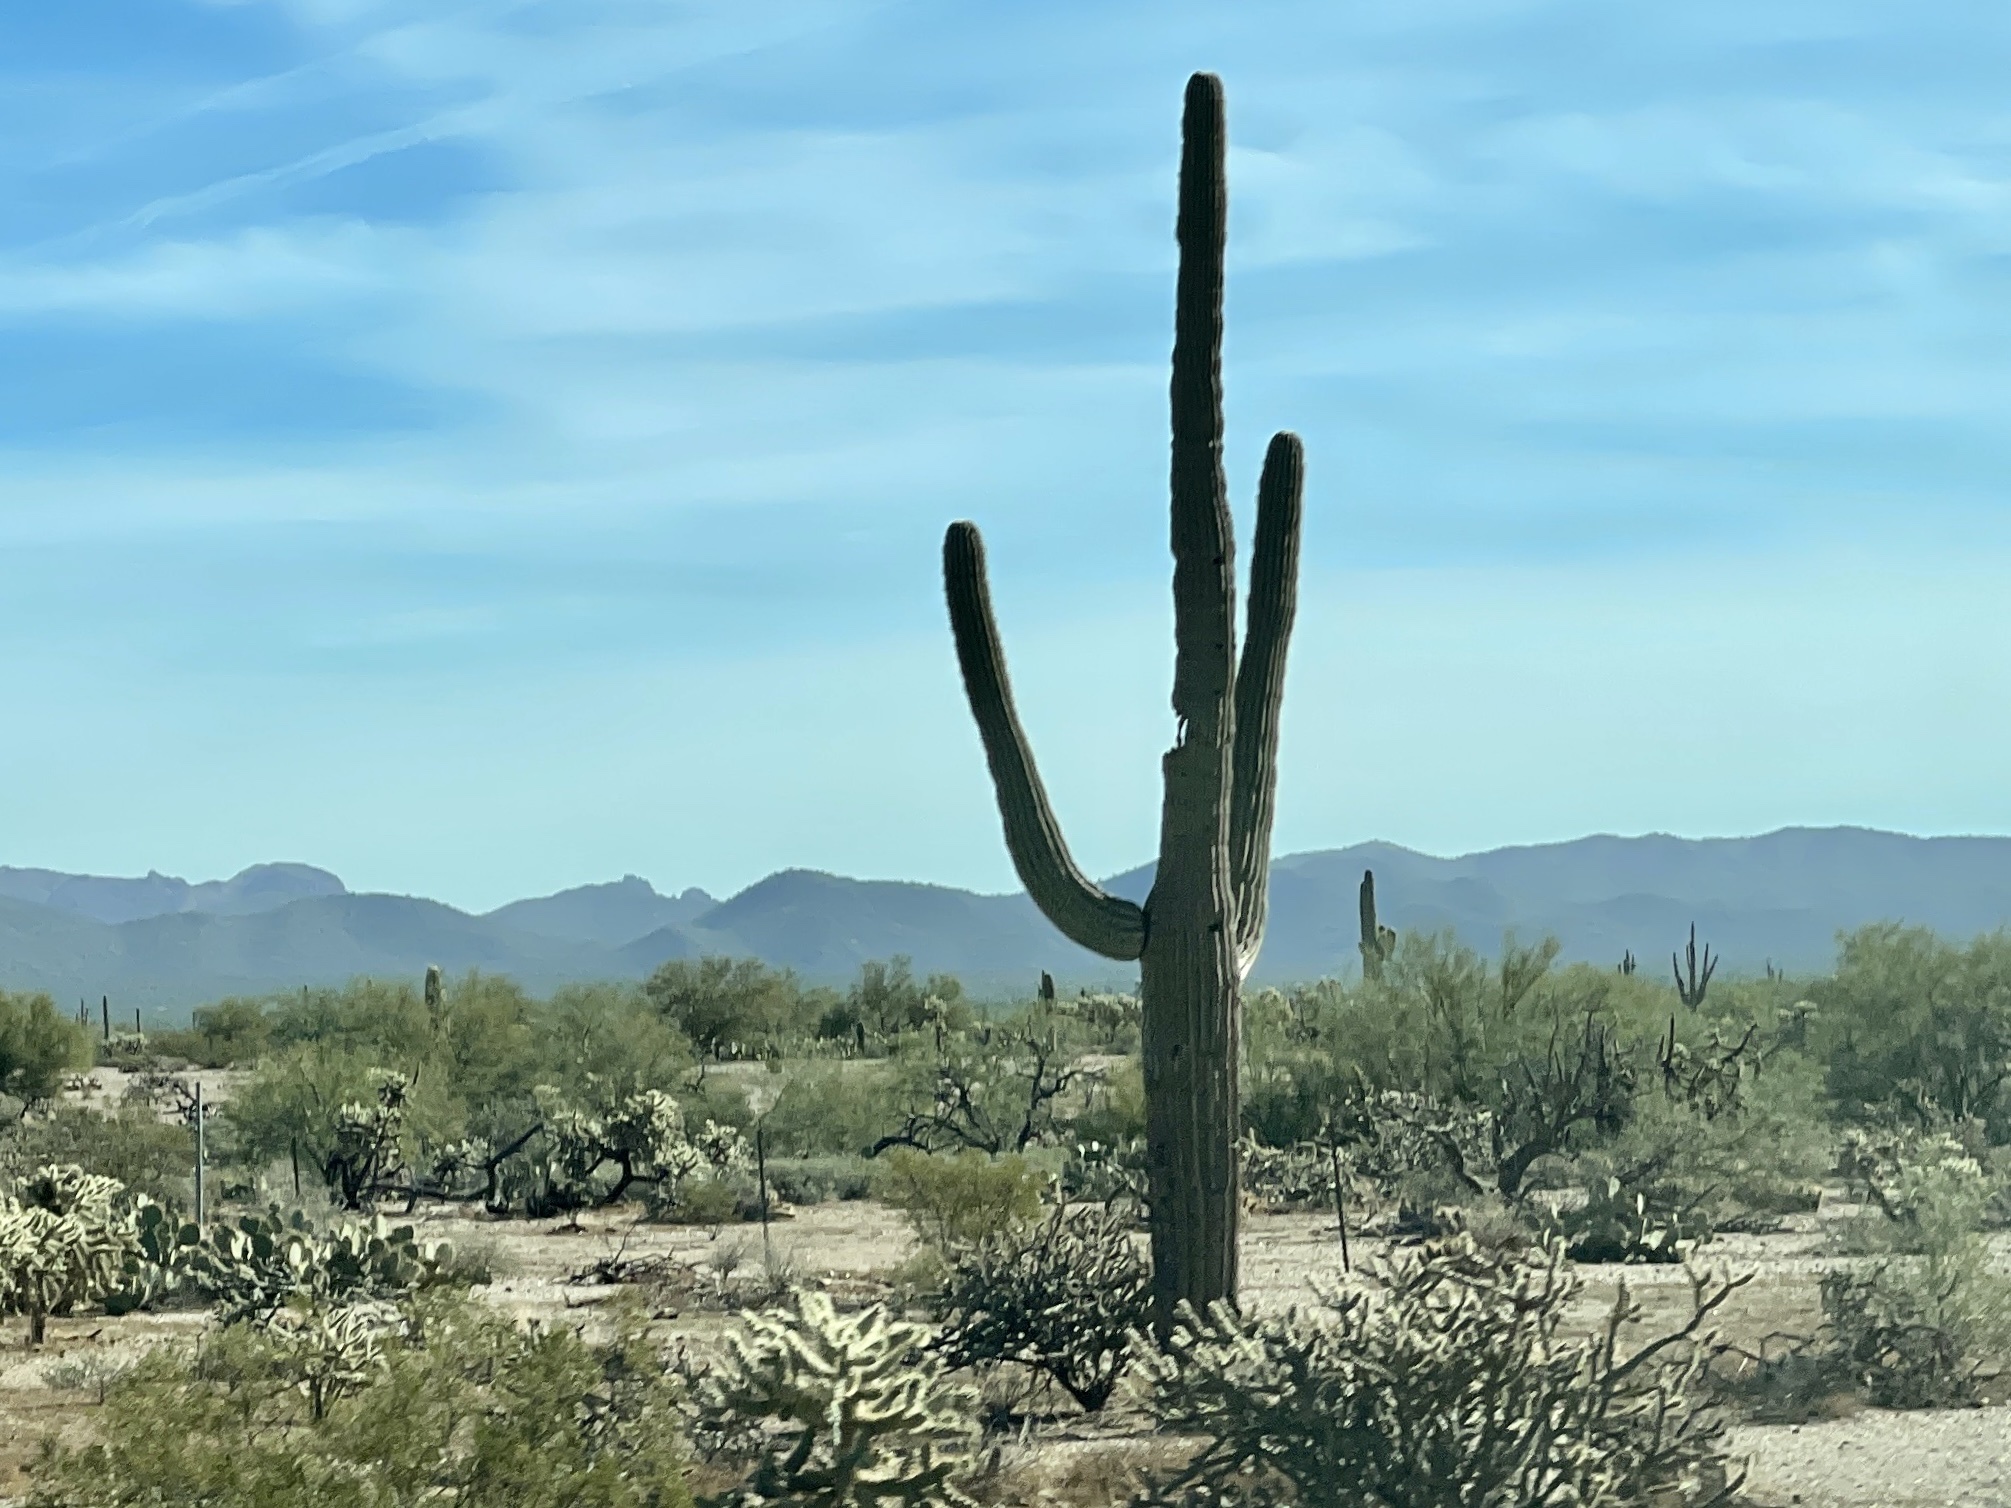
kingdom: Plantae
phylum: Tracheophyta
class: Magnoliopsida
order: Caryophyllales
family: Cactaceae
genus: Carnegiea
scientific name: Carnegiea gigantea
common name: Saguaro
